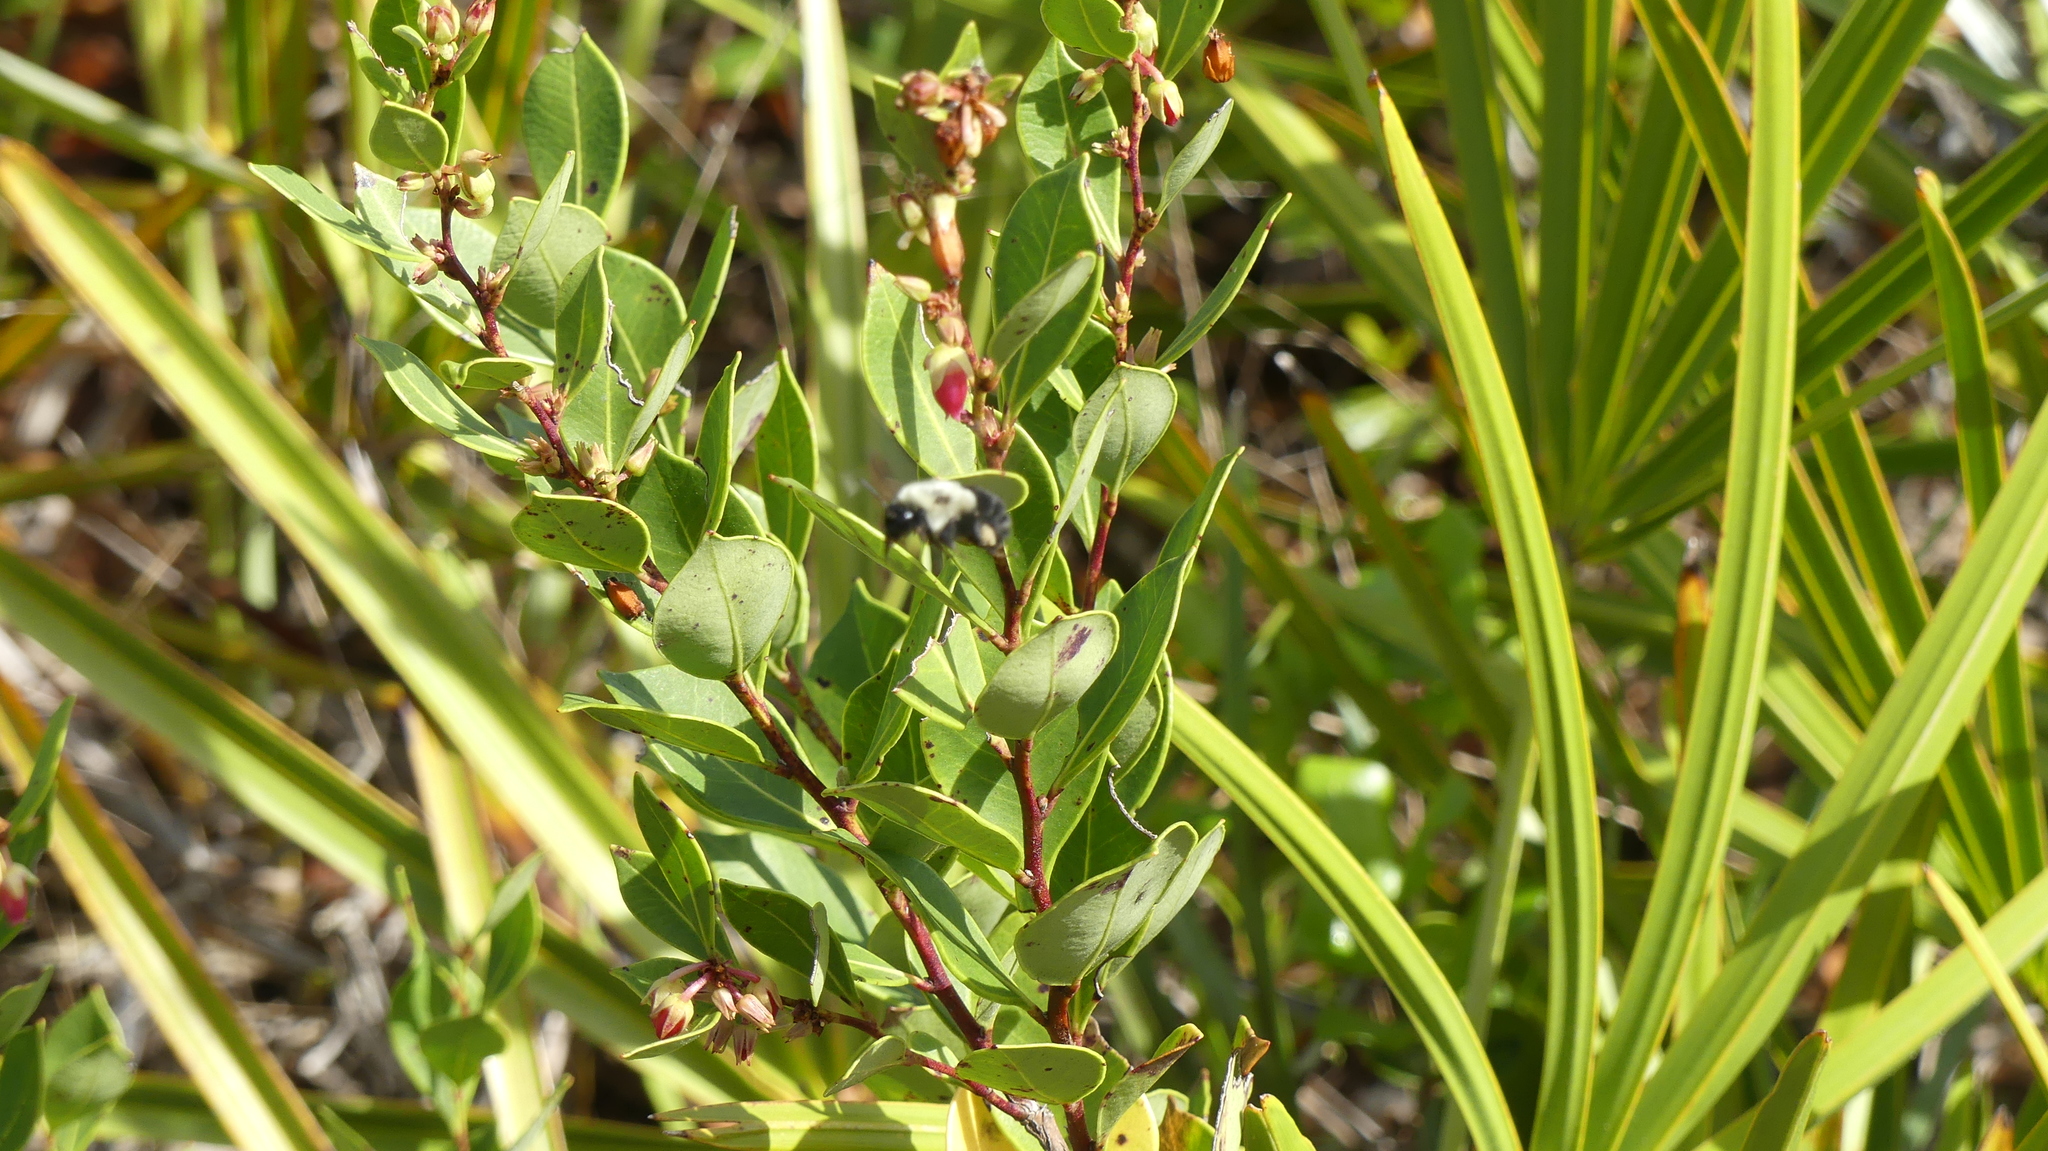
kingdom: Animalia
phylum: Arthropoda
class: Insecta
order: Hymenoptera
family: Apidae
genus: Bombus
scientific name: Bombus impatiens
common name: Common eastern bumble bee
